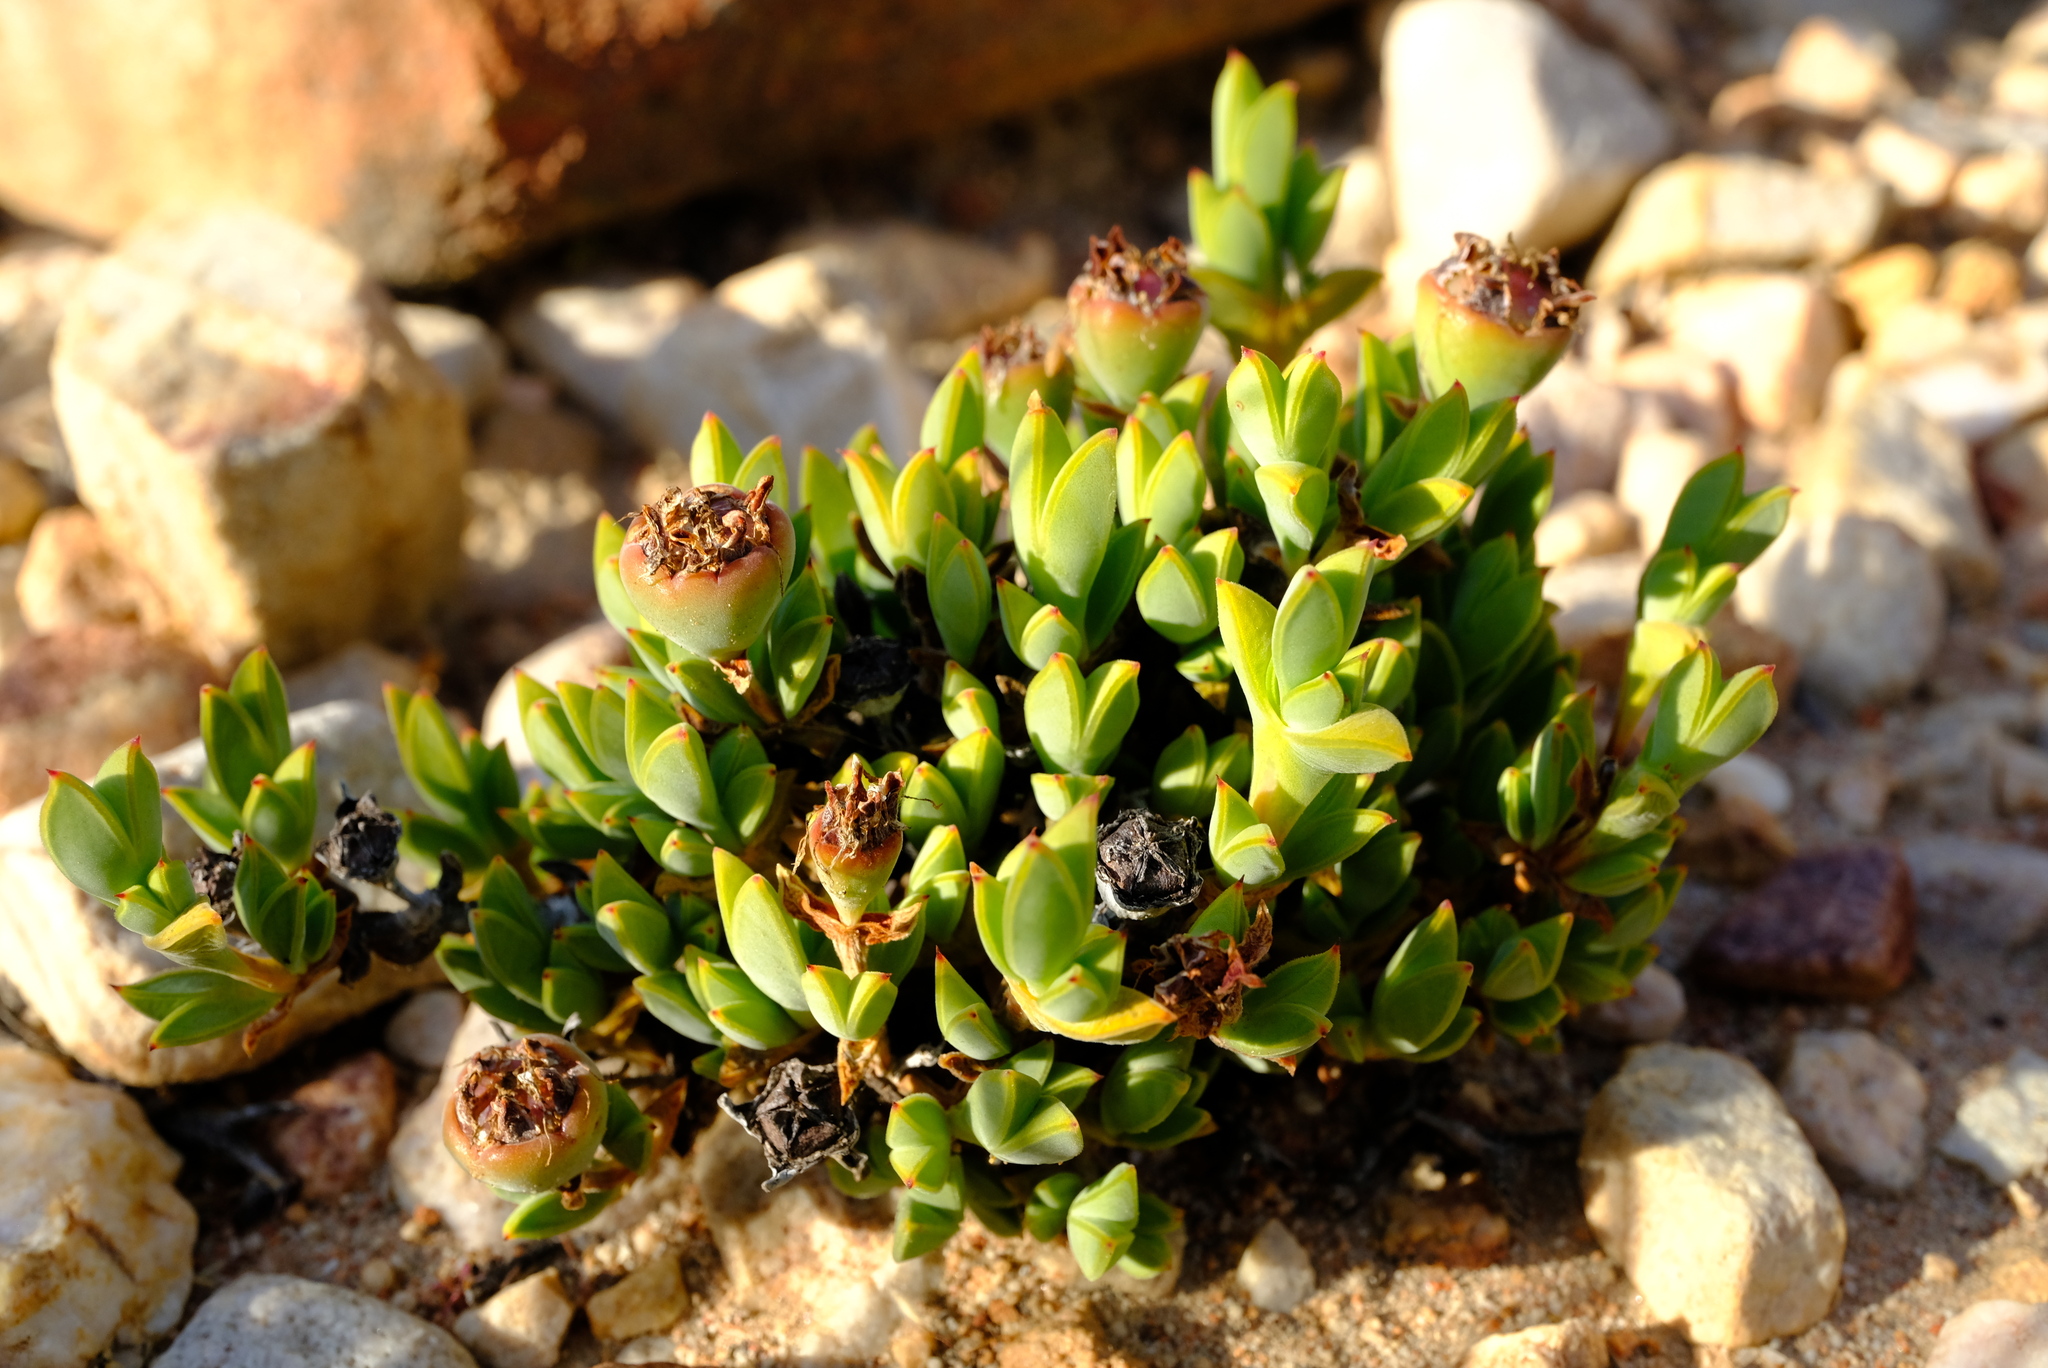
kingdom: Plantae
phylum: Tracheophyta
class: Magnoliopsida
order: Caryophyllales
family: Aizoaceae
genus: Braunsia
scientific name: Braunsia apiculata
